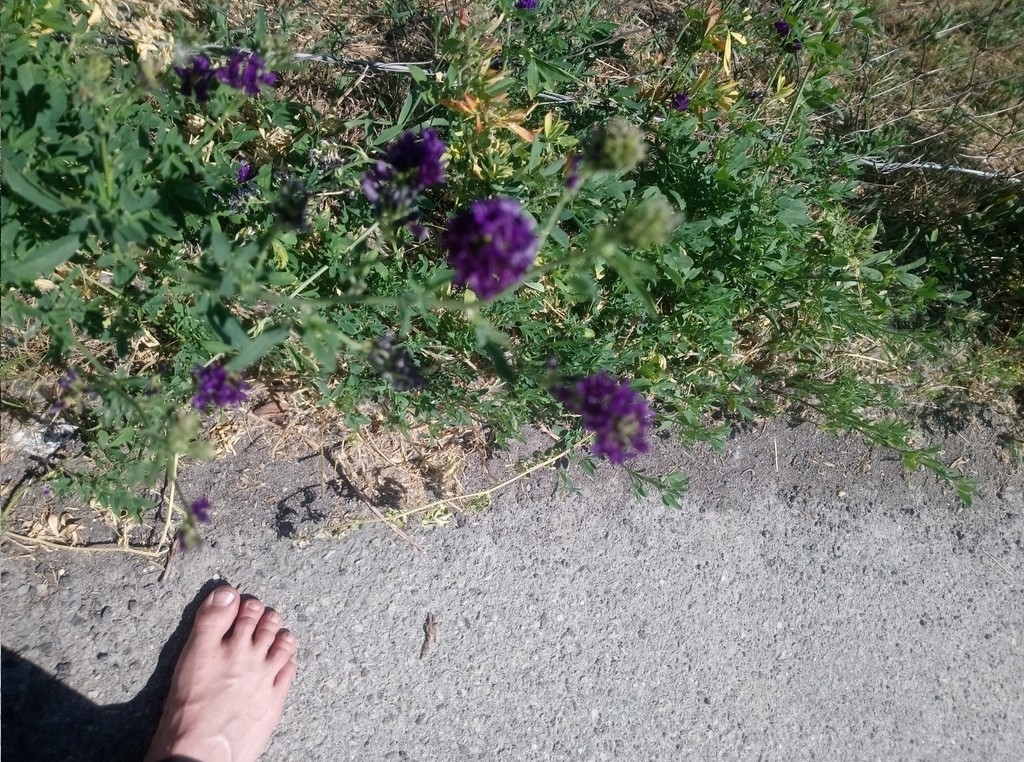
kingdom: Plantae
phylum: Tracheophyta
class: Magnoliopsida
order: Fabales
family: Fabaceae
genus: Medicago
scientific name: Medicago sativa
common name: Alfalfa
